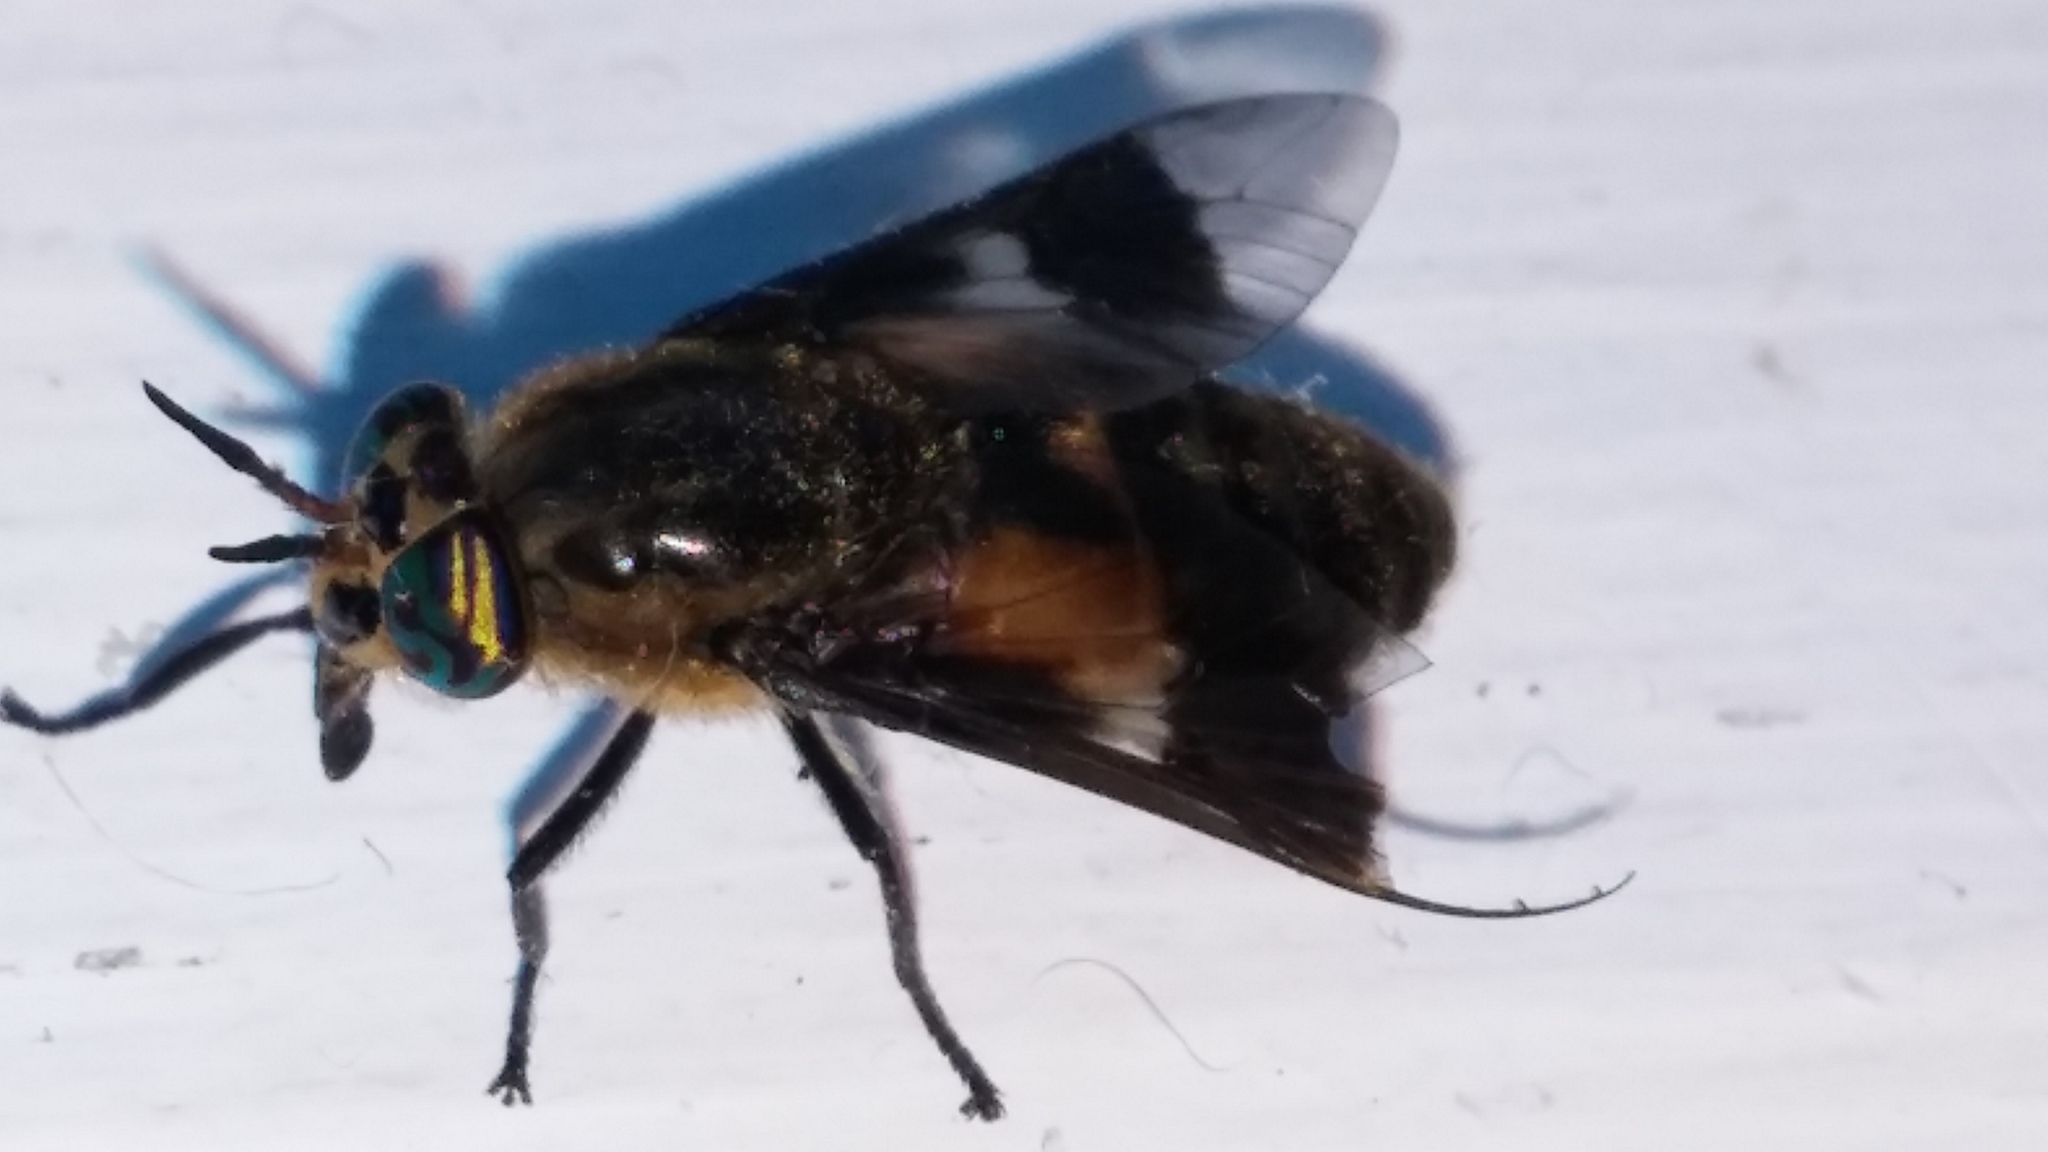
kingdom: Animalia
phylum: Arthropoda
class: Insecta
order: Diptera
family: Tabanidae
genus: Chrysops
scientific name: Chrysops excitans
